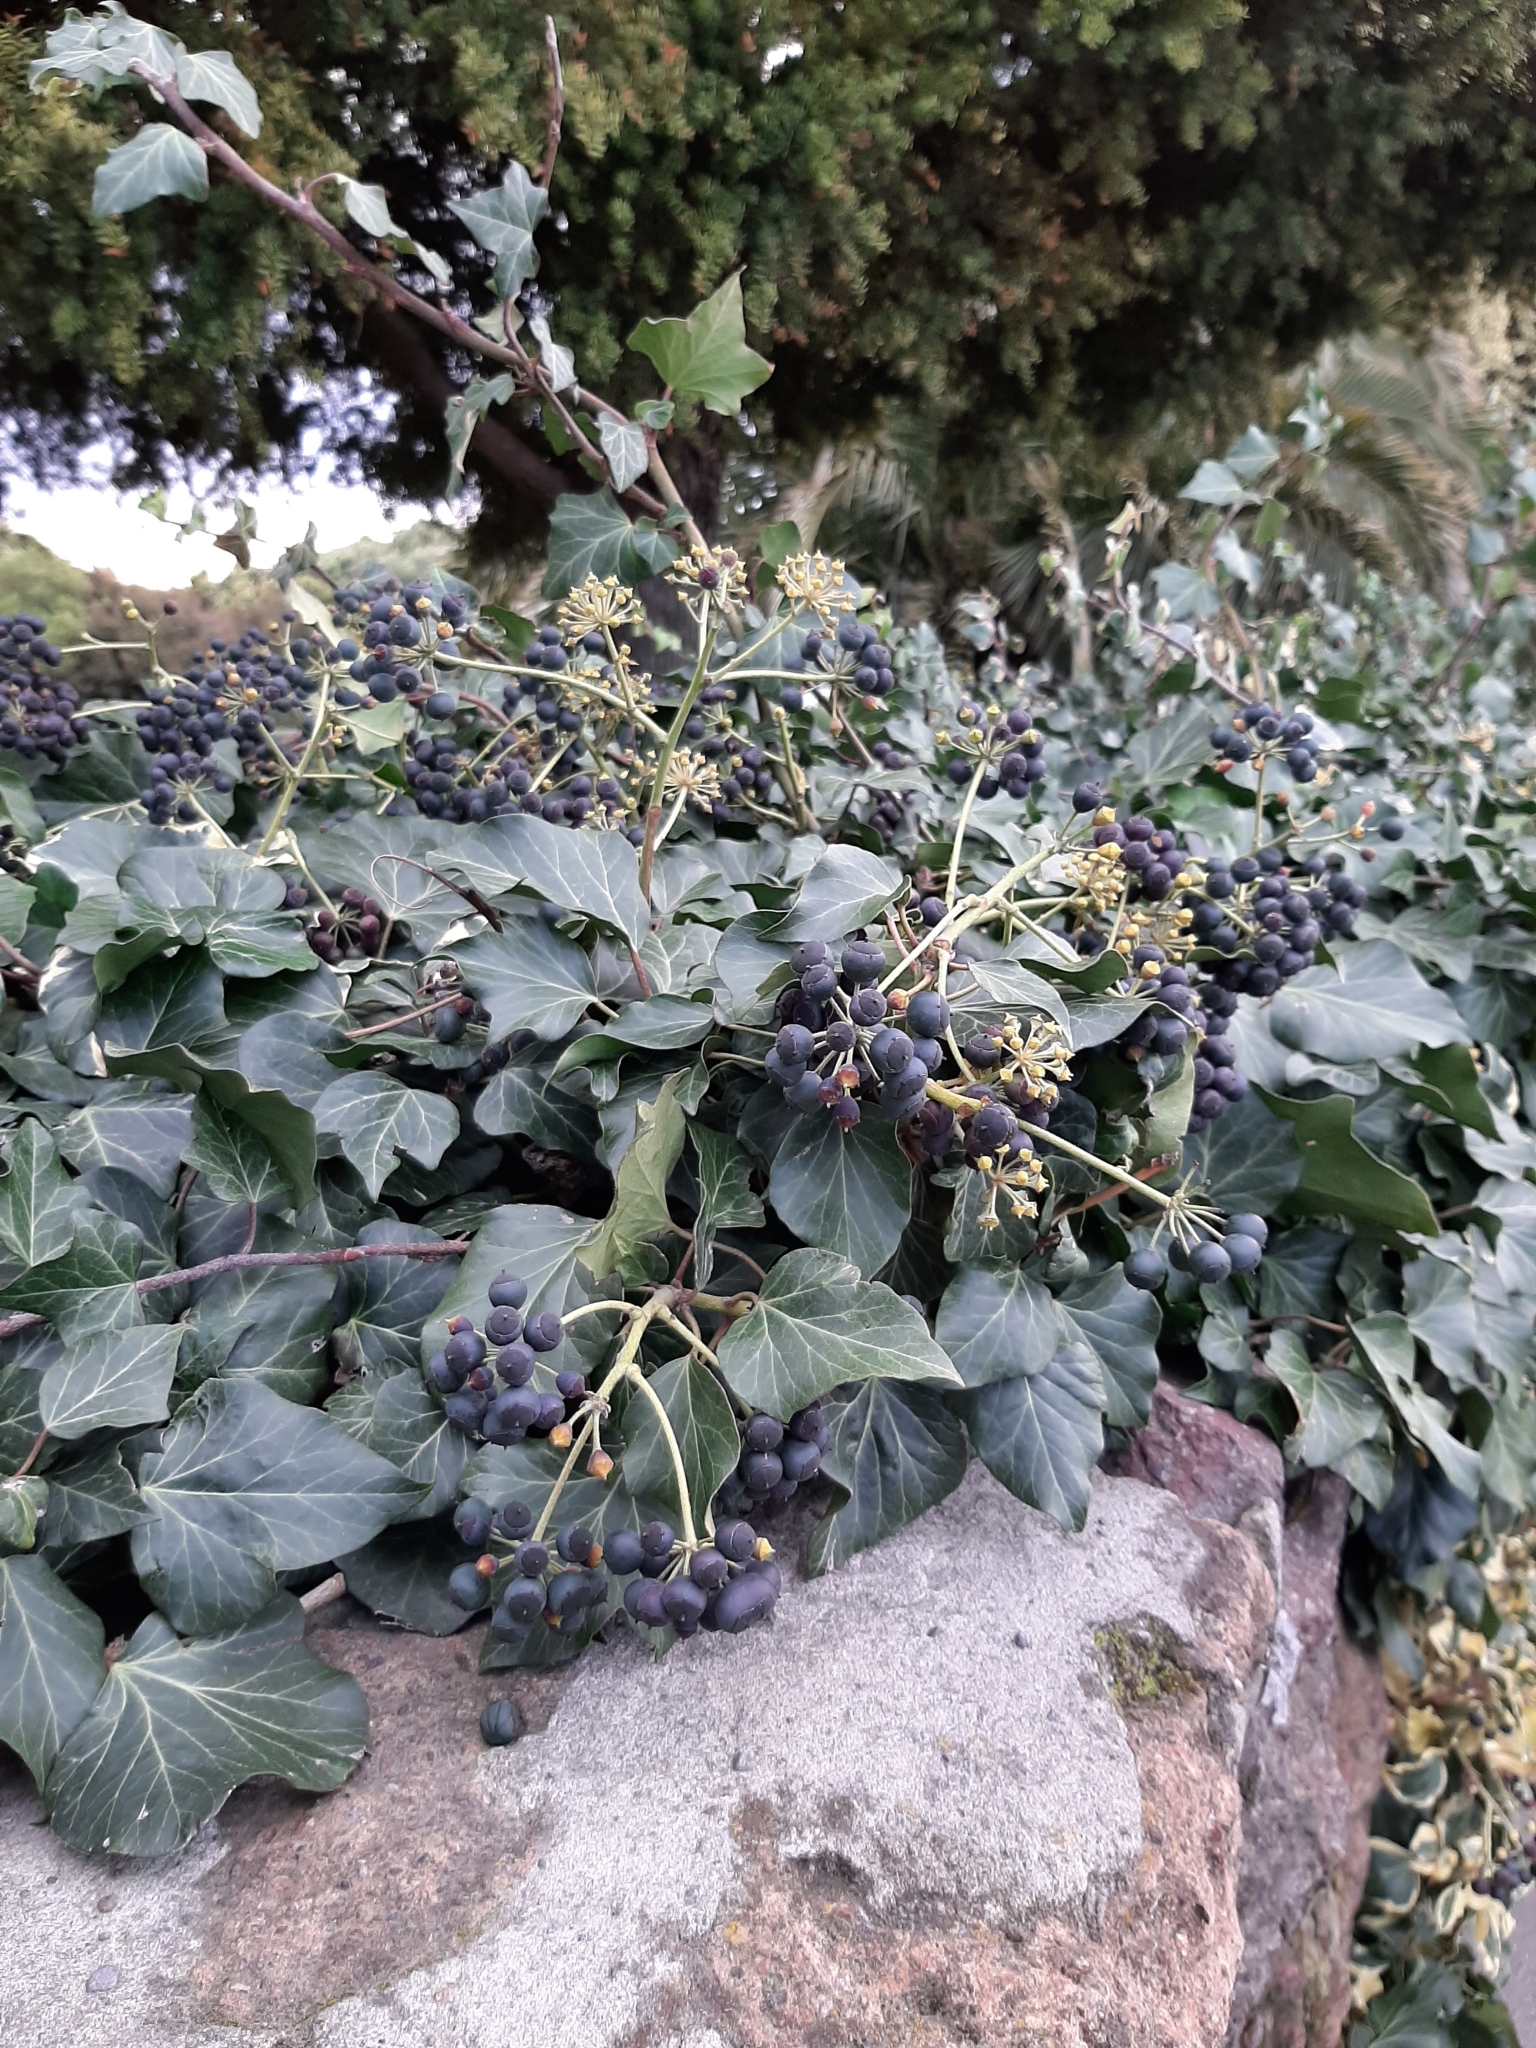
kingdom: Plantae
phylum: Tracheophyta
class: Magnoliopsida
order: Apiales
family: Araliaceae
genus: Hedera
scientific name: Hedera helix
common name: Ivy
